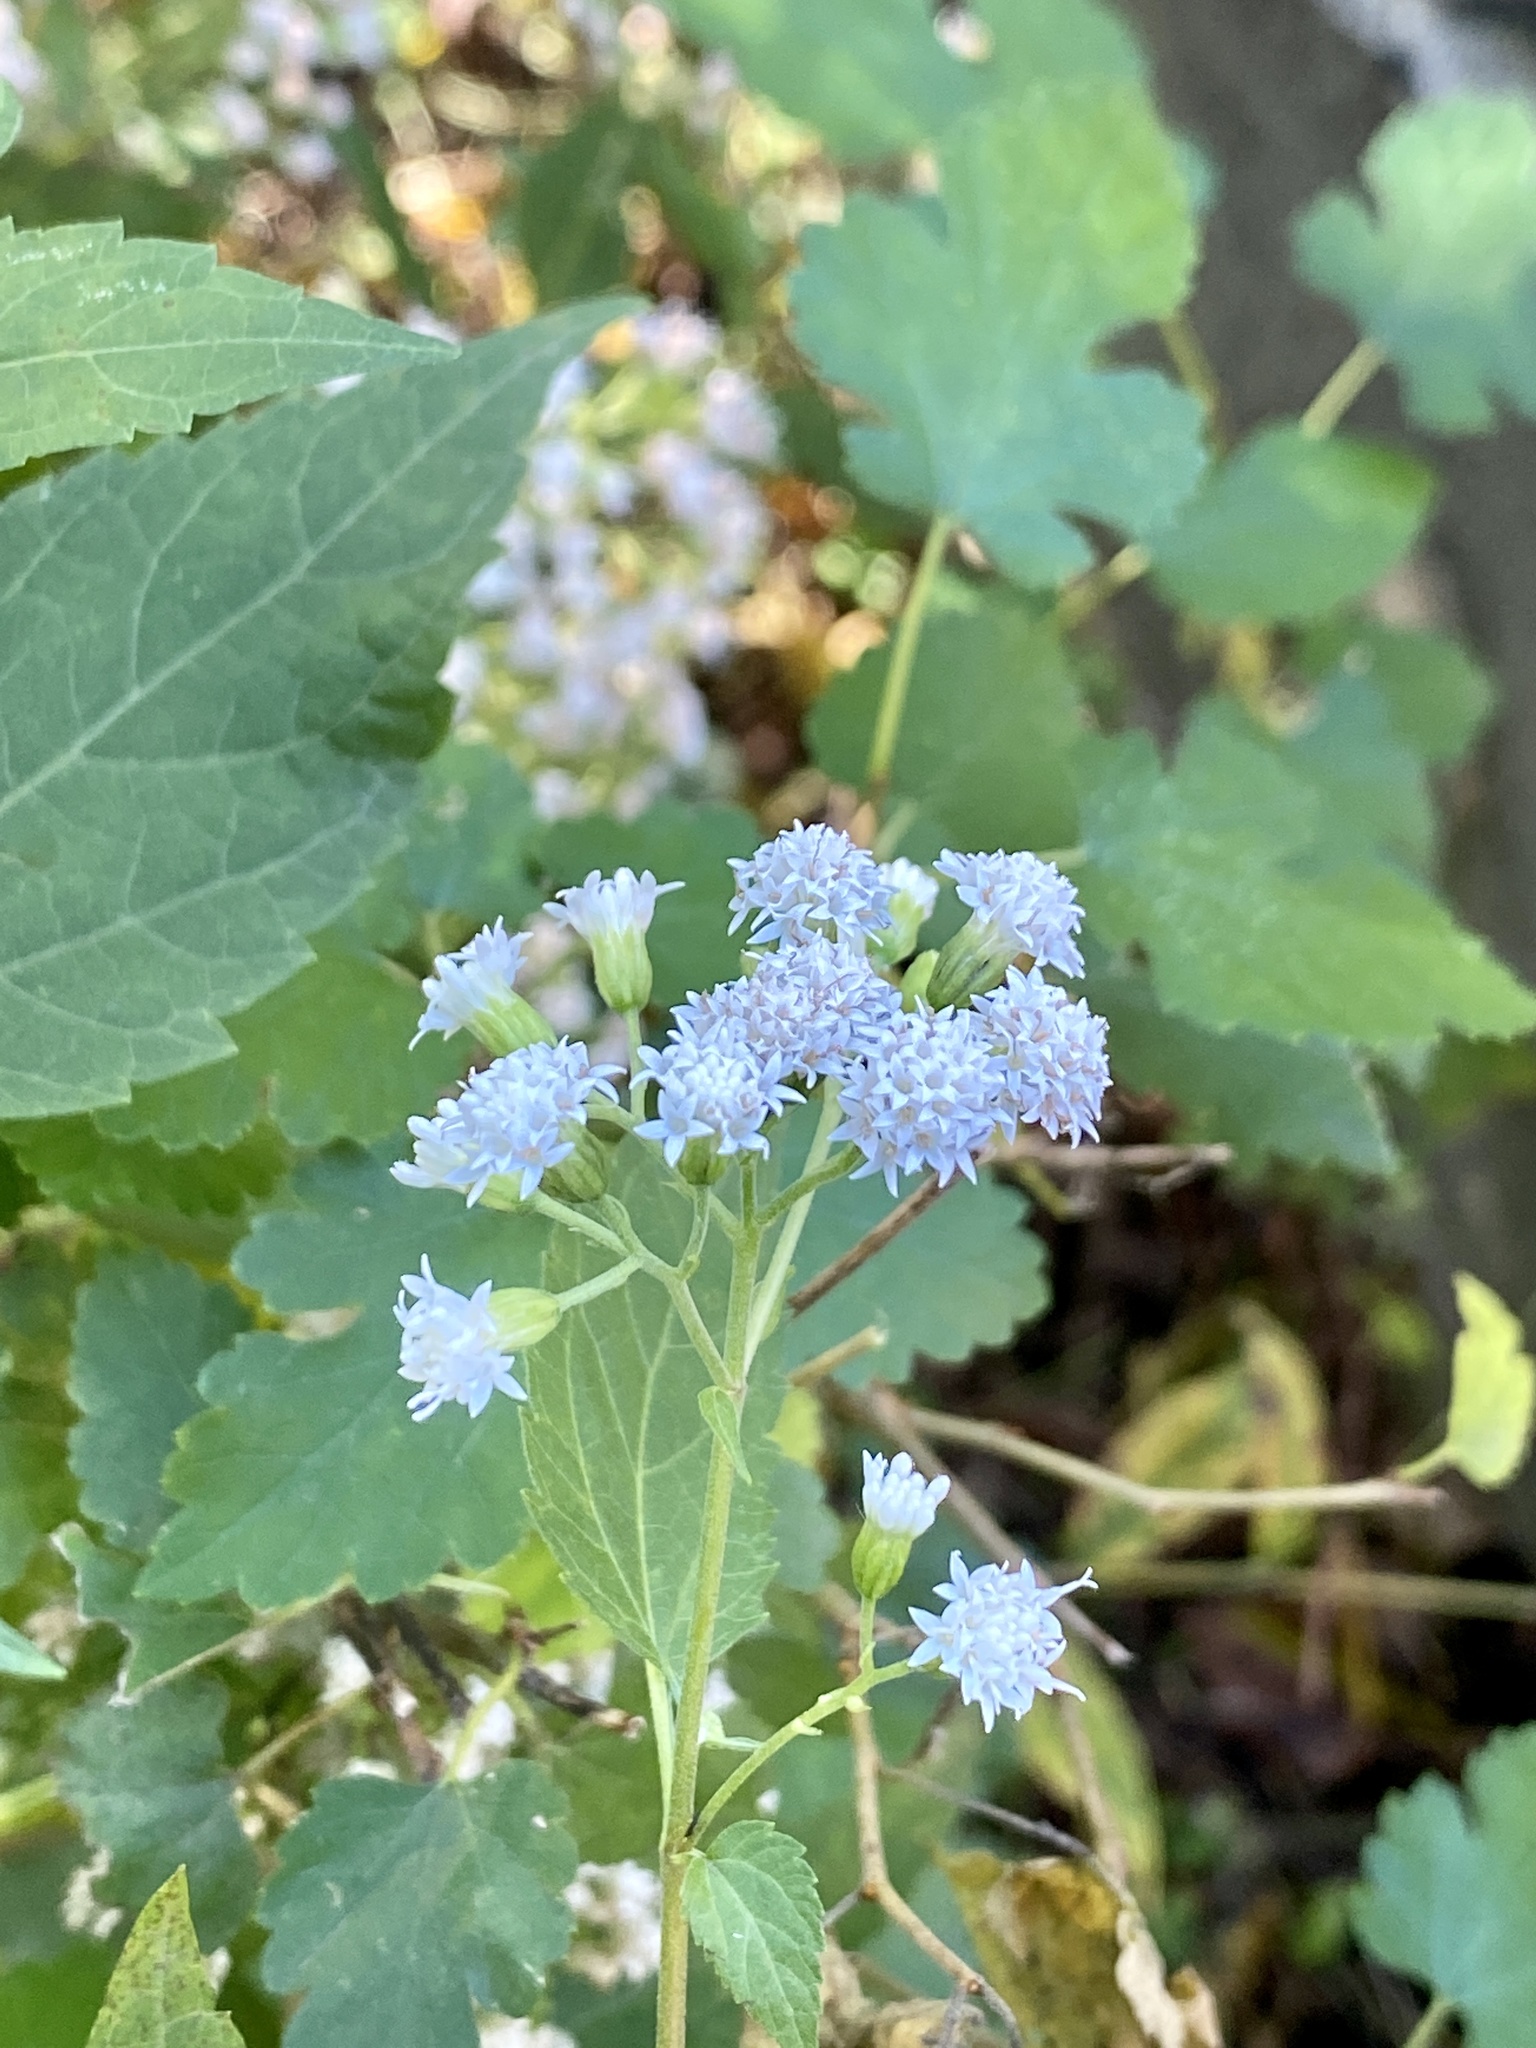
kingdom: Plantae
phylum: Tracheophyta
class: Magnoliopsida
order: Asterales
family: Asteraceae
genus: Ageratina
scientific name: Ageratina altissima
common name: White snakeroot
